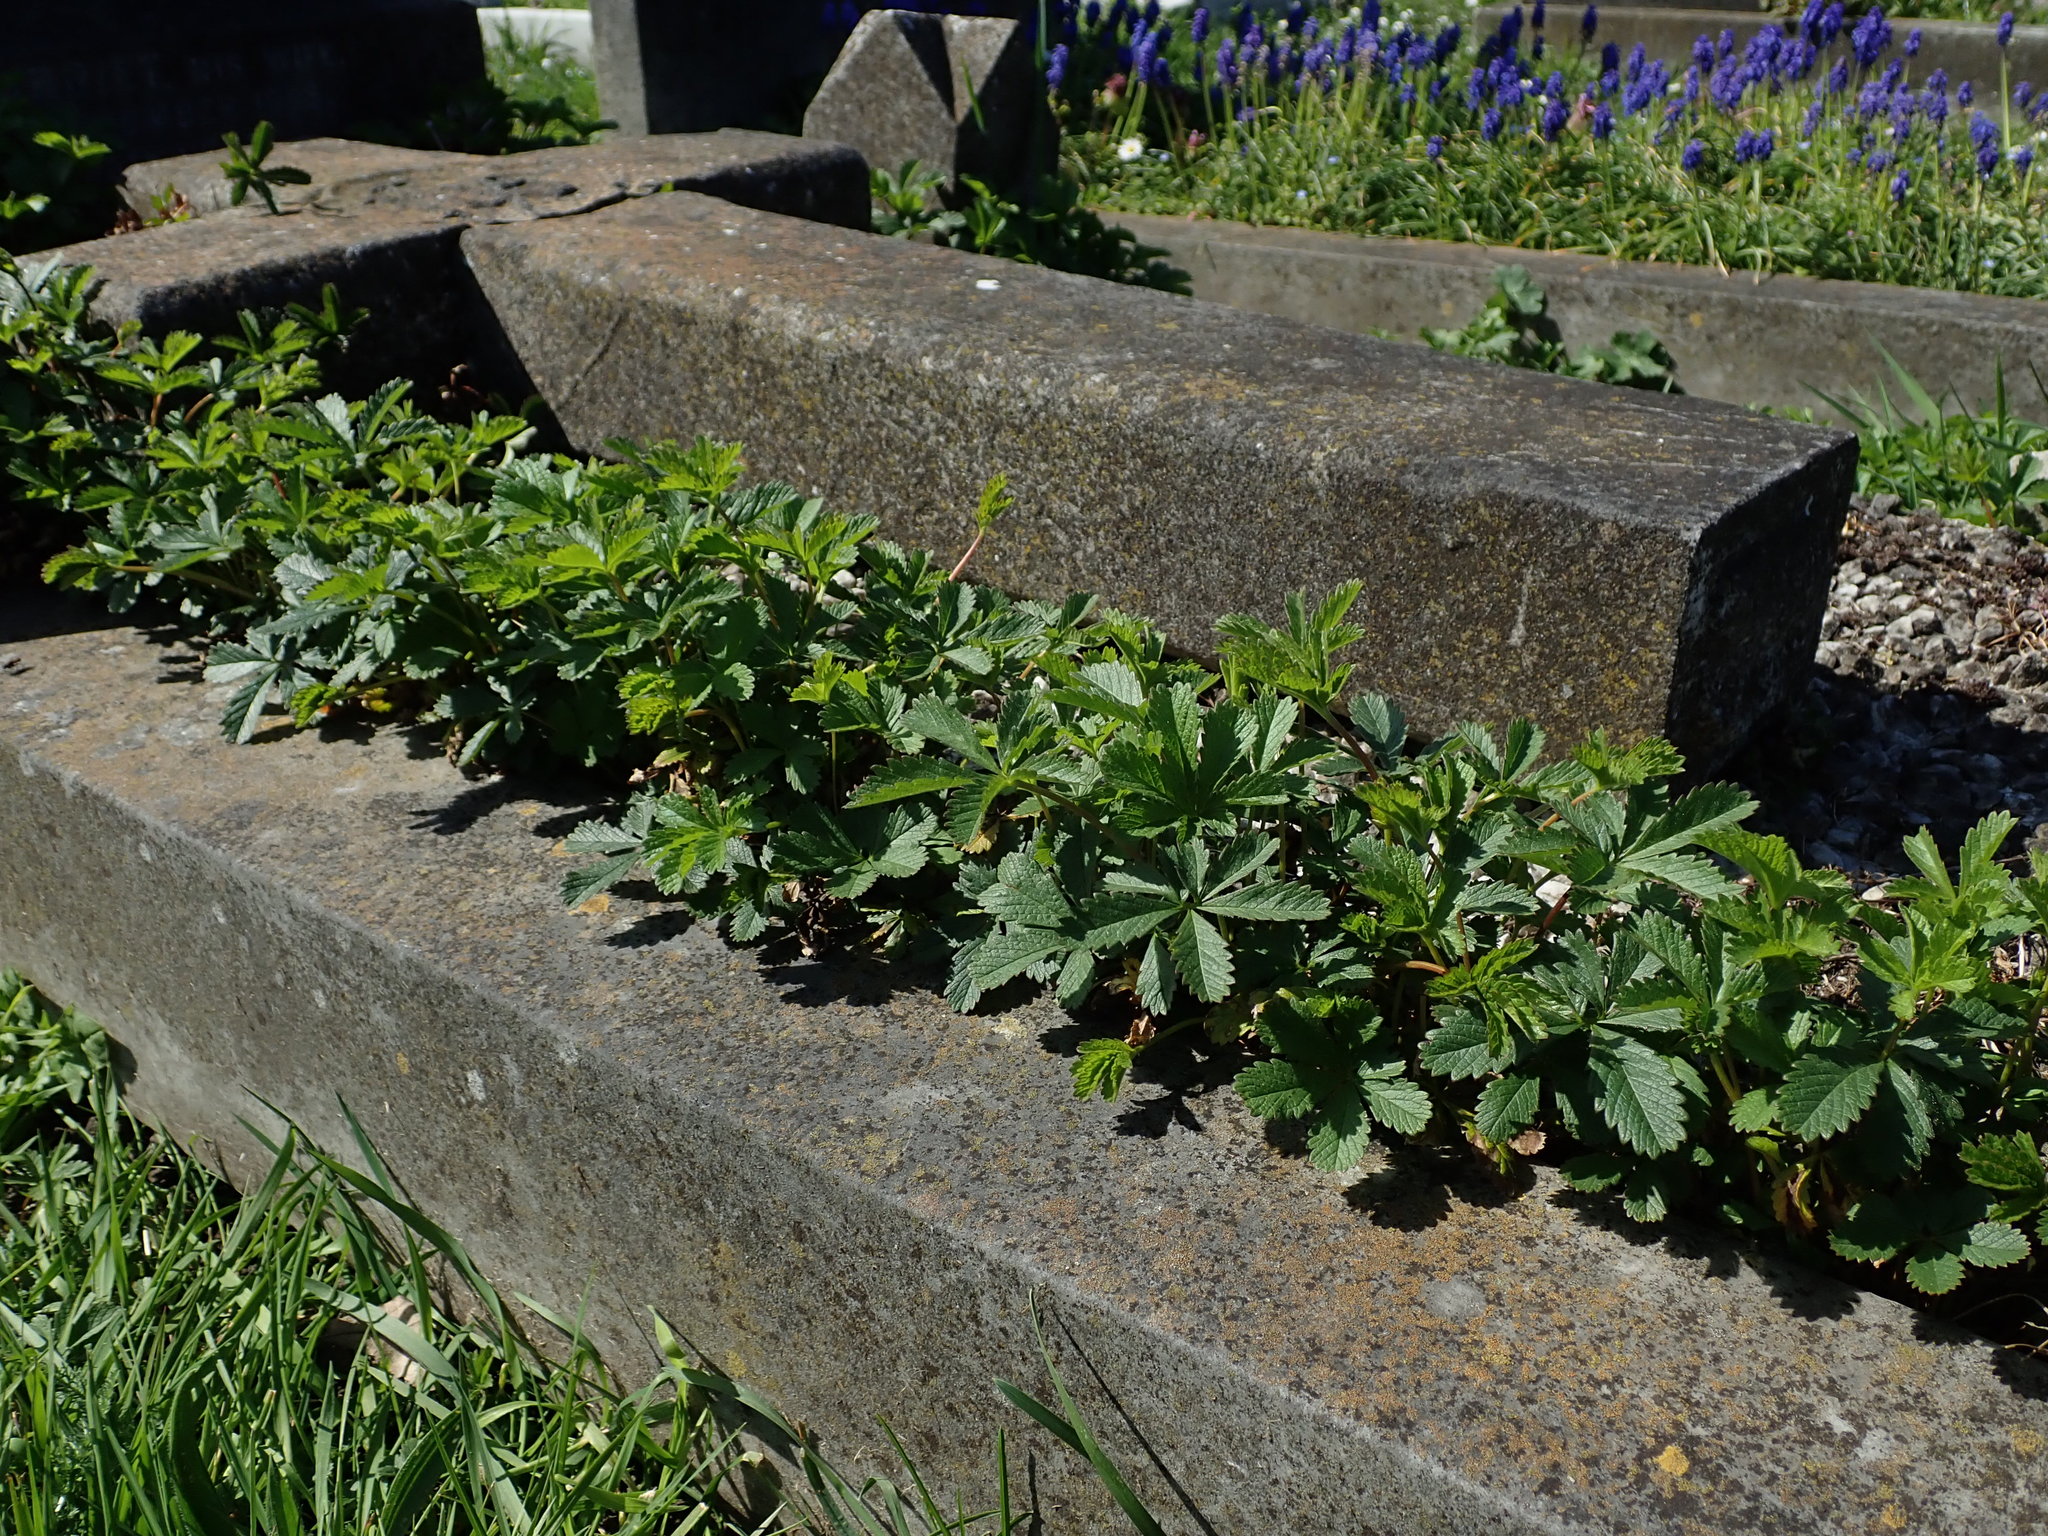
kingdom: Plantae
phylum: Tracheophyta
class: Magnoliopsida
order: Rosales
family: Rosaceae
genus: Potentilla
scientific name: Potentilla reptans
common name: Creeping cinquefoil
